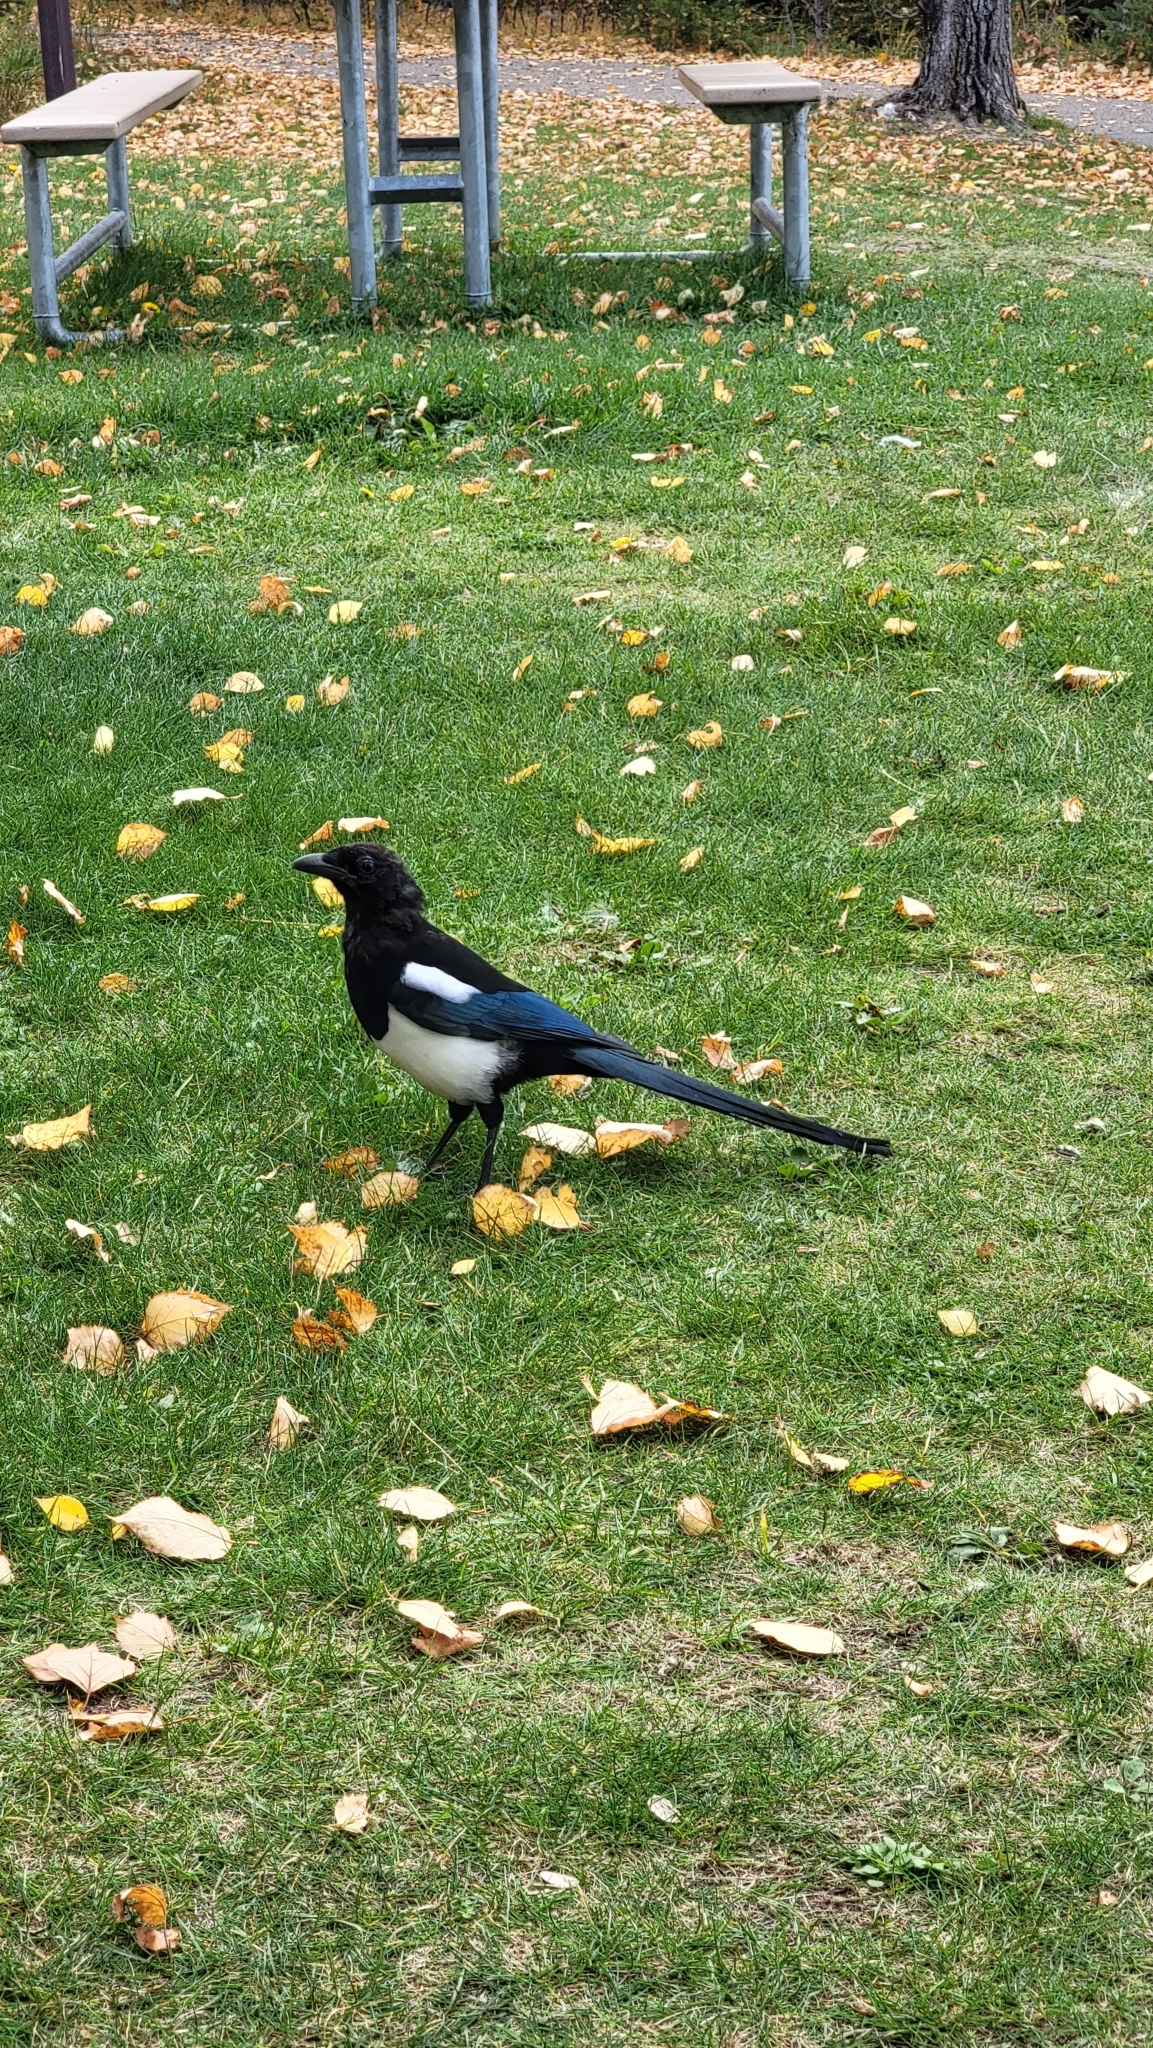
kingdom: Animalia
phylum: Chordata
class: Aves
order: Passeriformes
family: Corvidae
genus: Pica
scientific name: Pica hudsonia
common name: Black-billed magpie
